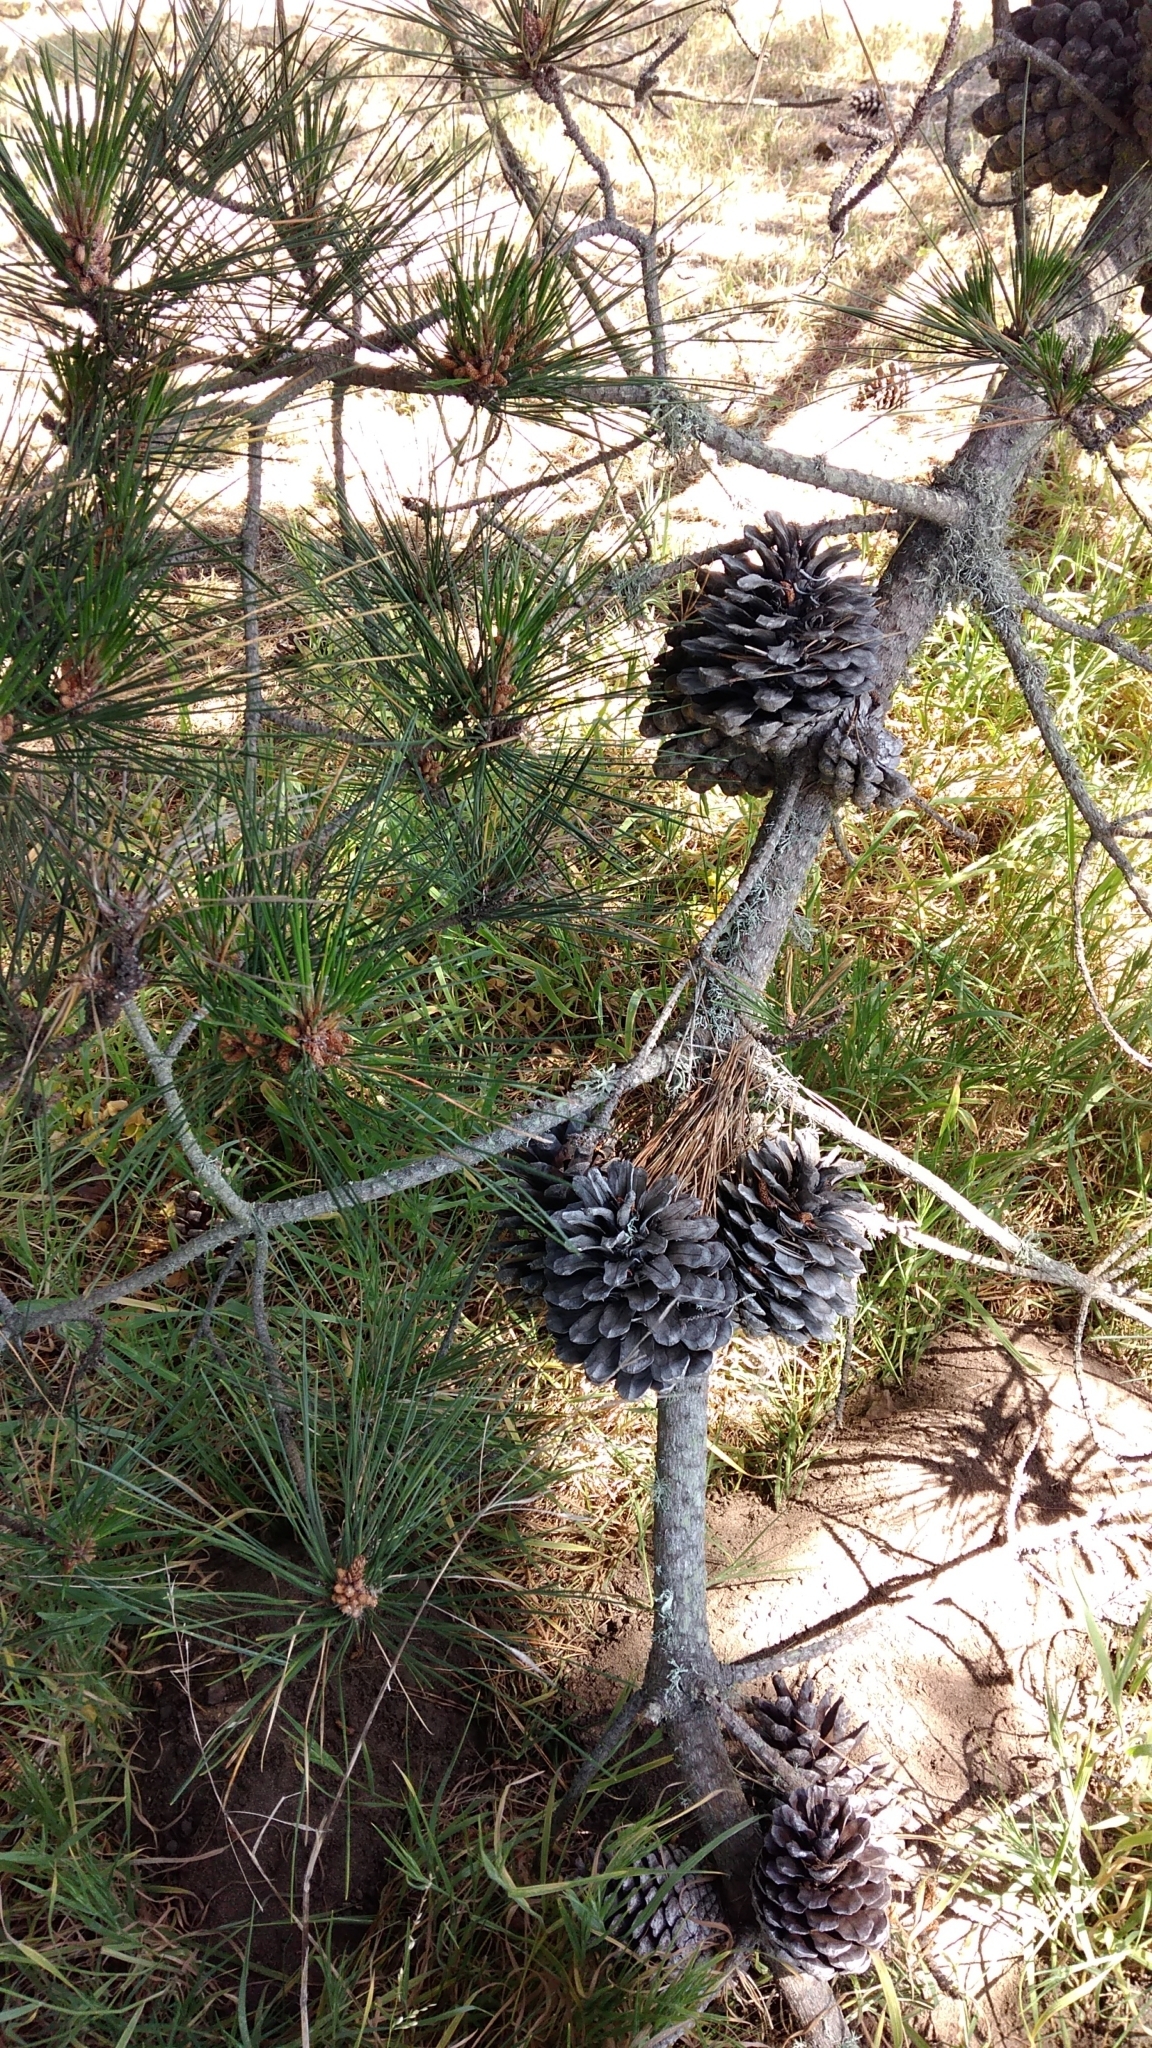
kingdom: Plantae
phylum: Tracheophyta
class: Pinopsida
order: Pinales
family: Pinaceae
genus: Pinus
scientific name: Pinus radiata
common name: Monterey pine
